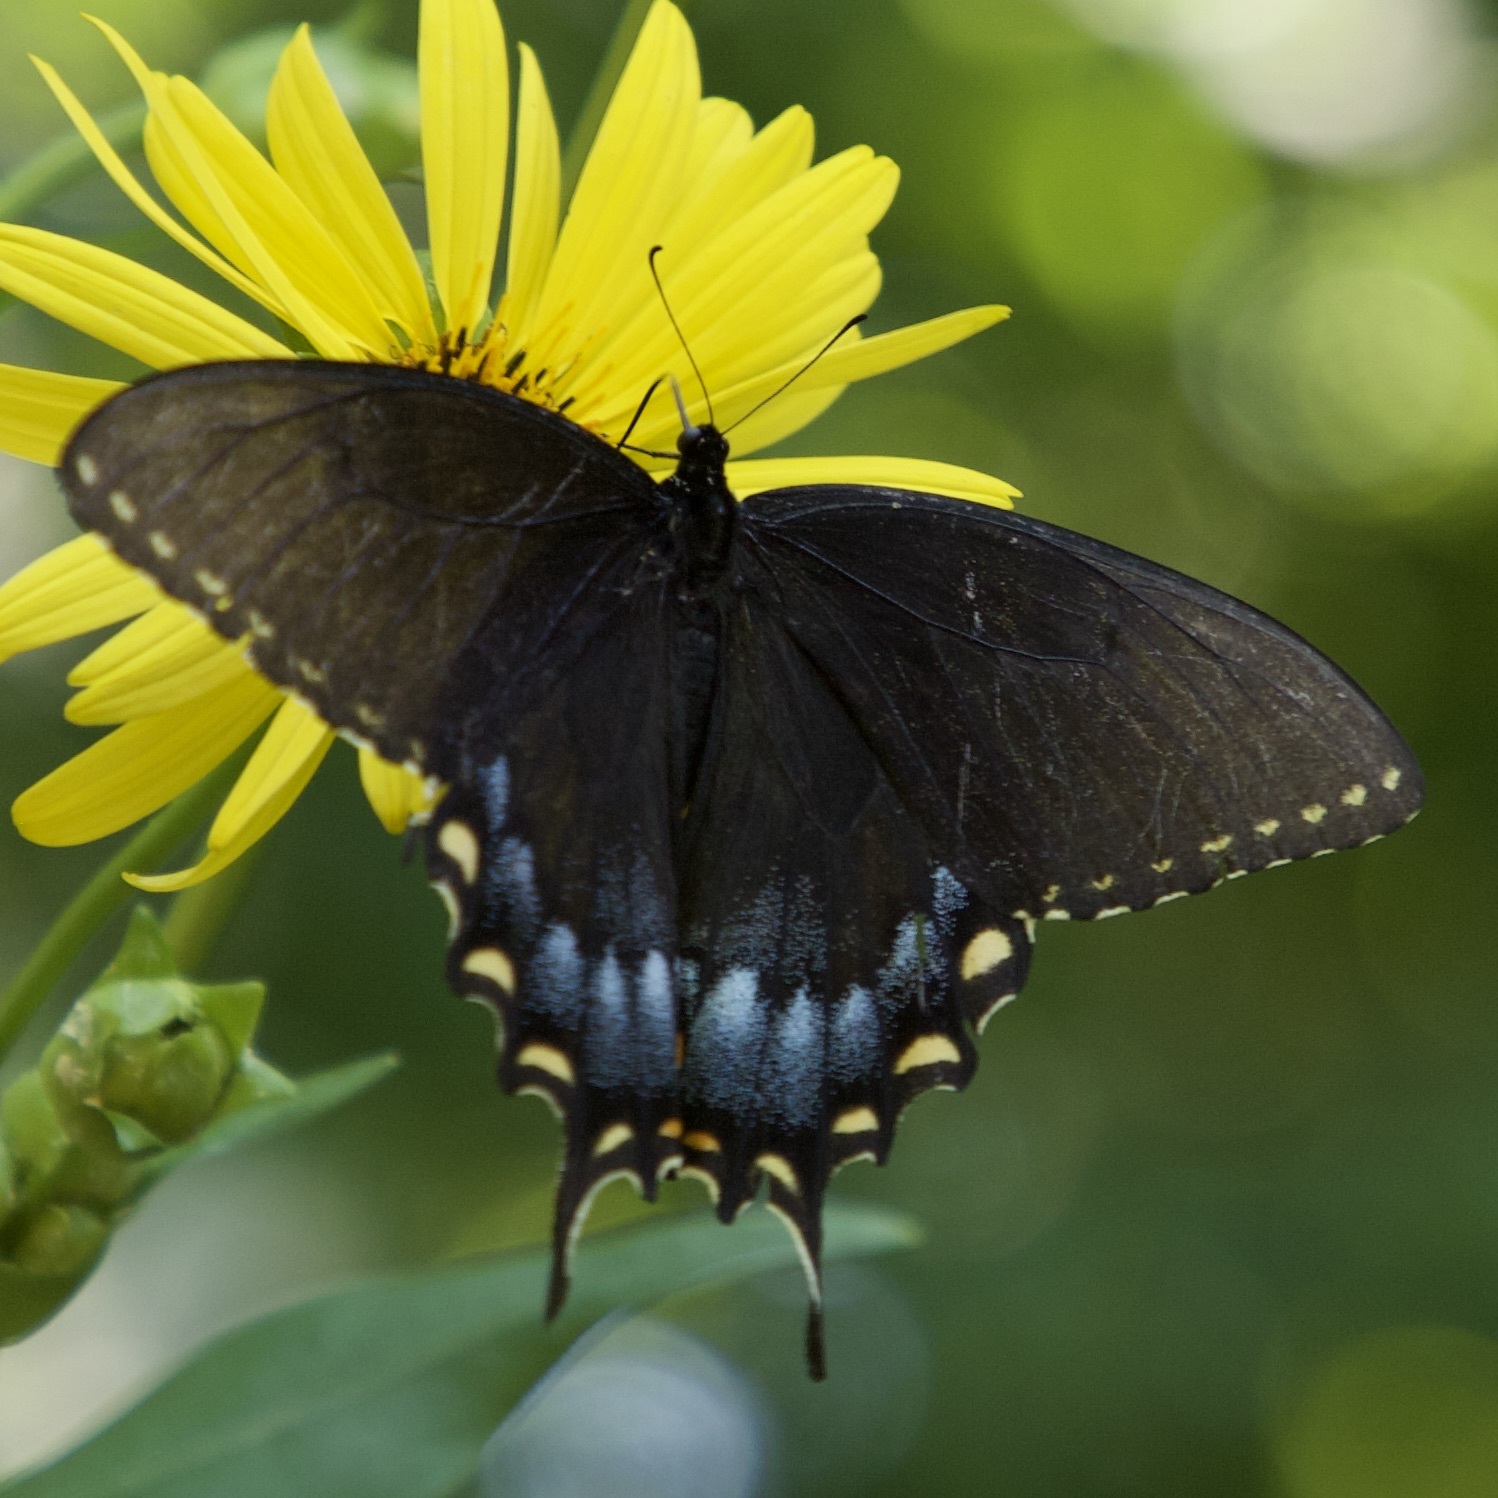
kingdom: Animalia
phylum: Arthropoda
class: Insecta
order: Lepidoptera
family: Papilionidae
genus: Papilio
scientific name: Papilio glaucus
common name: Tiger swallowtail
